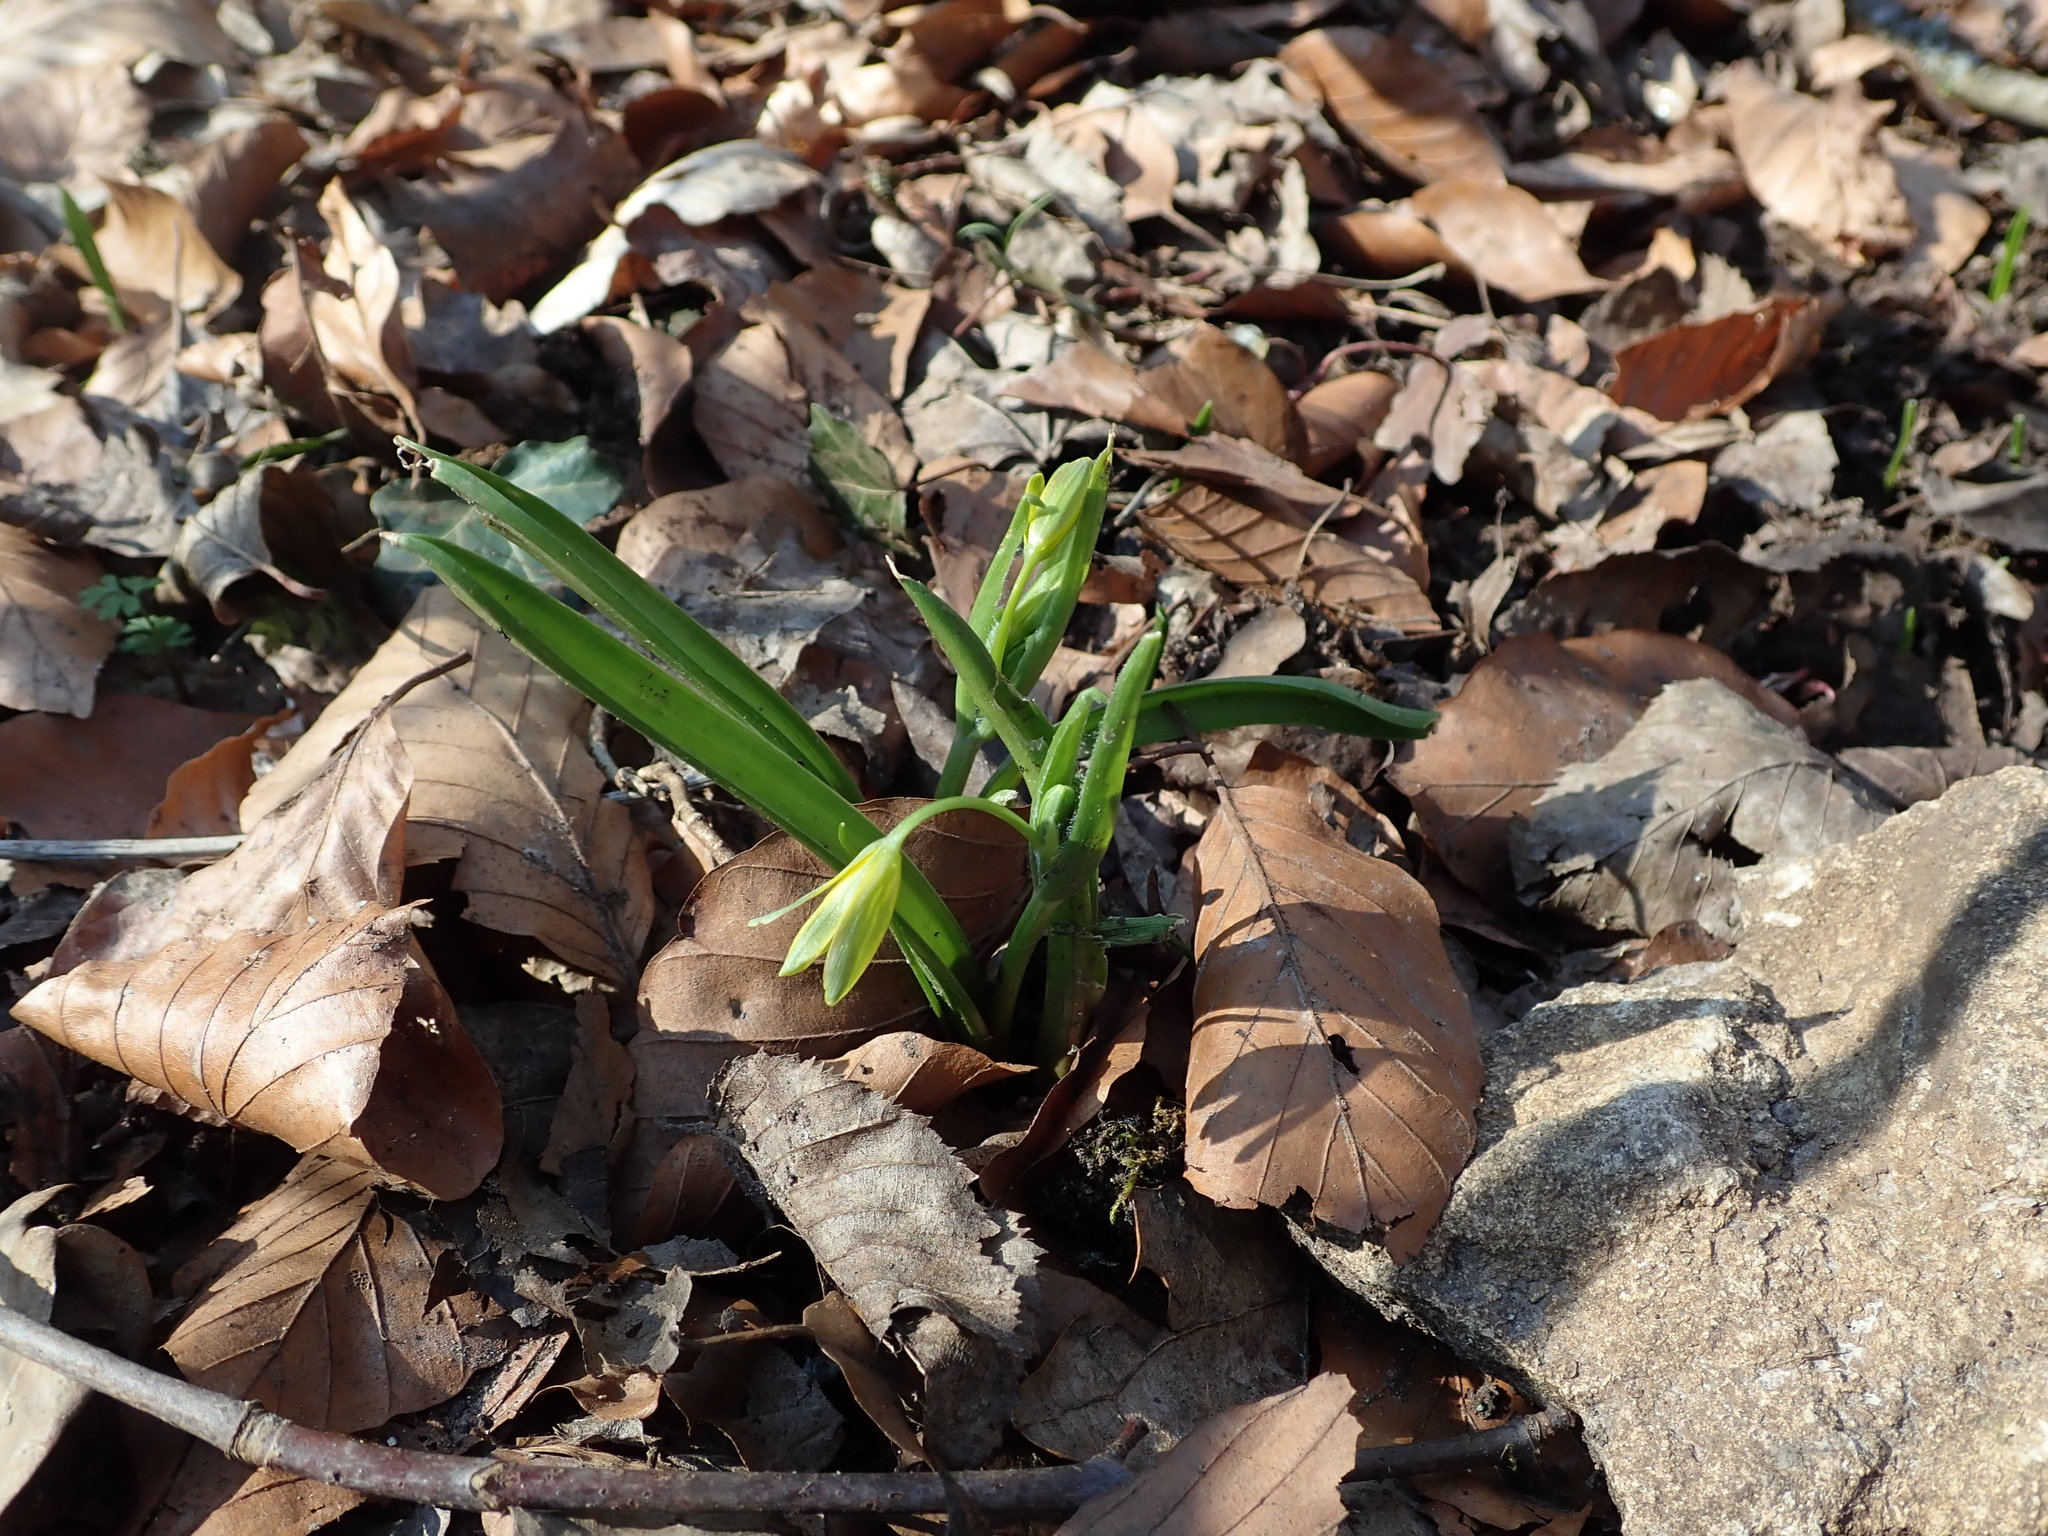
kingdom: Plantae
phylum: Tracheophyta
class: Liliopsida
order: Liliales
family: Liliaceae
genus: Gagea
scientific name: Gagea lutea
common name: Yellow star-of-bethlehem
